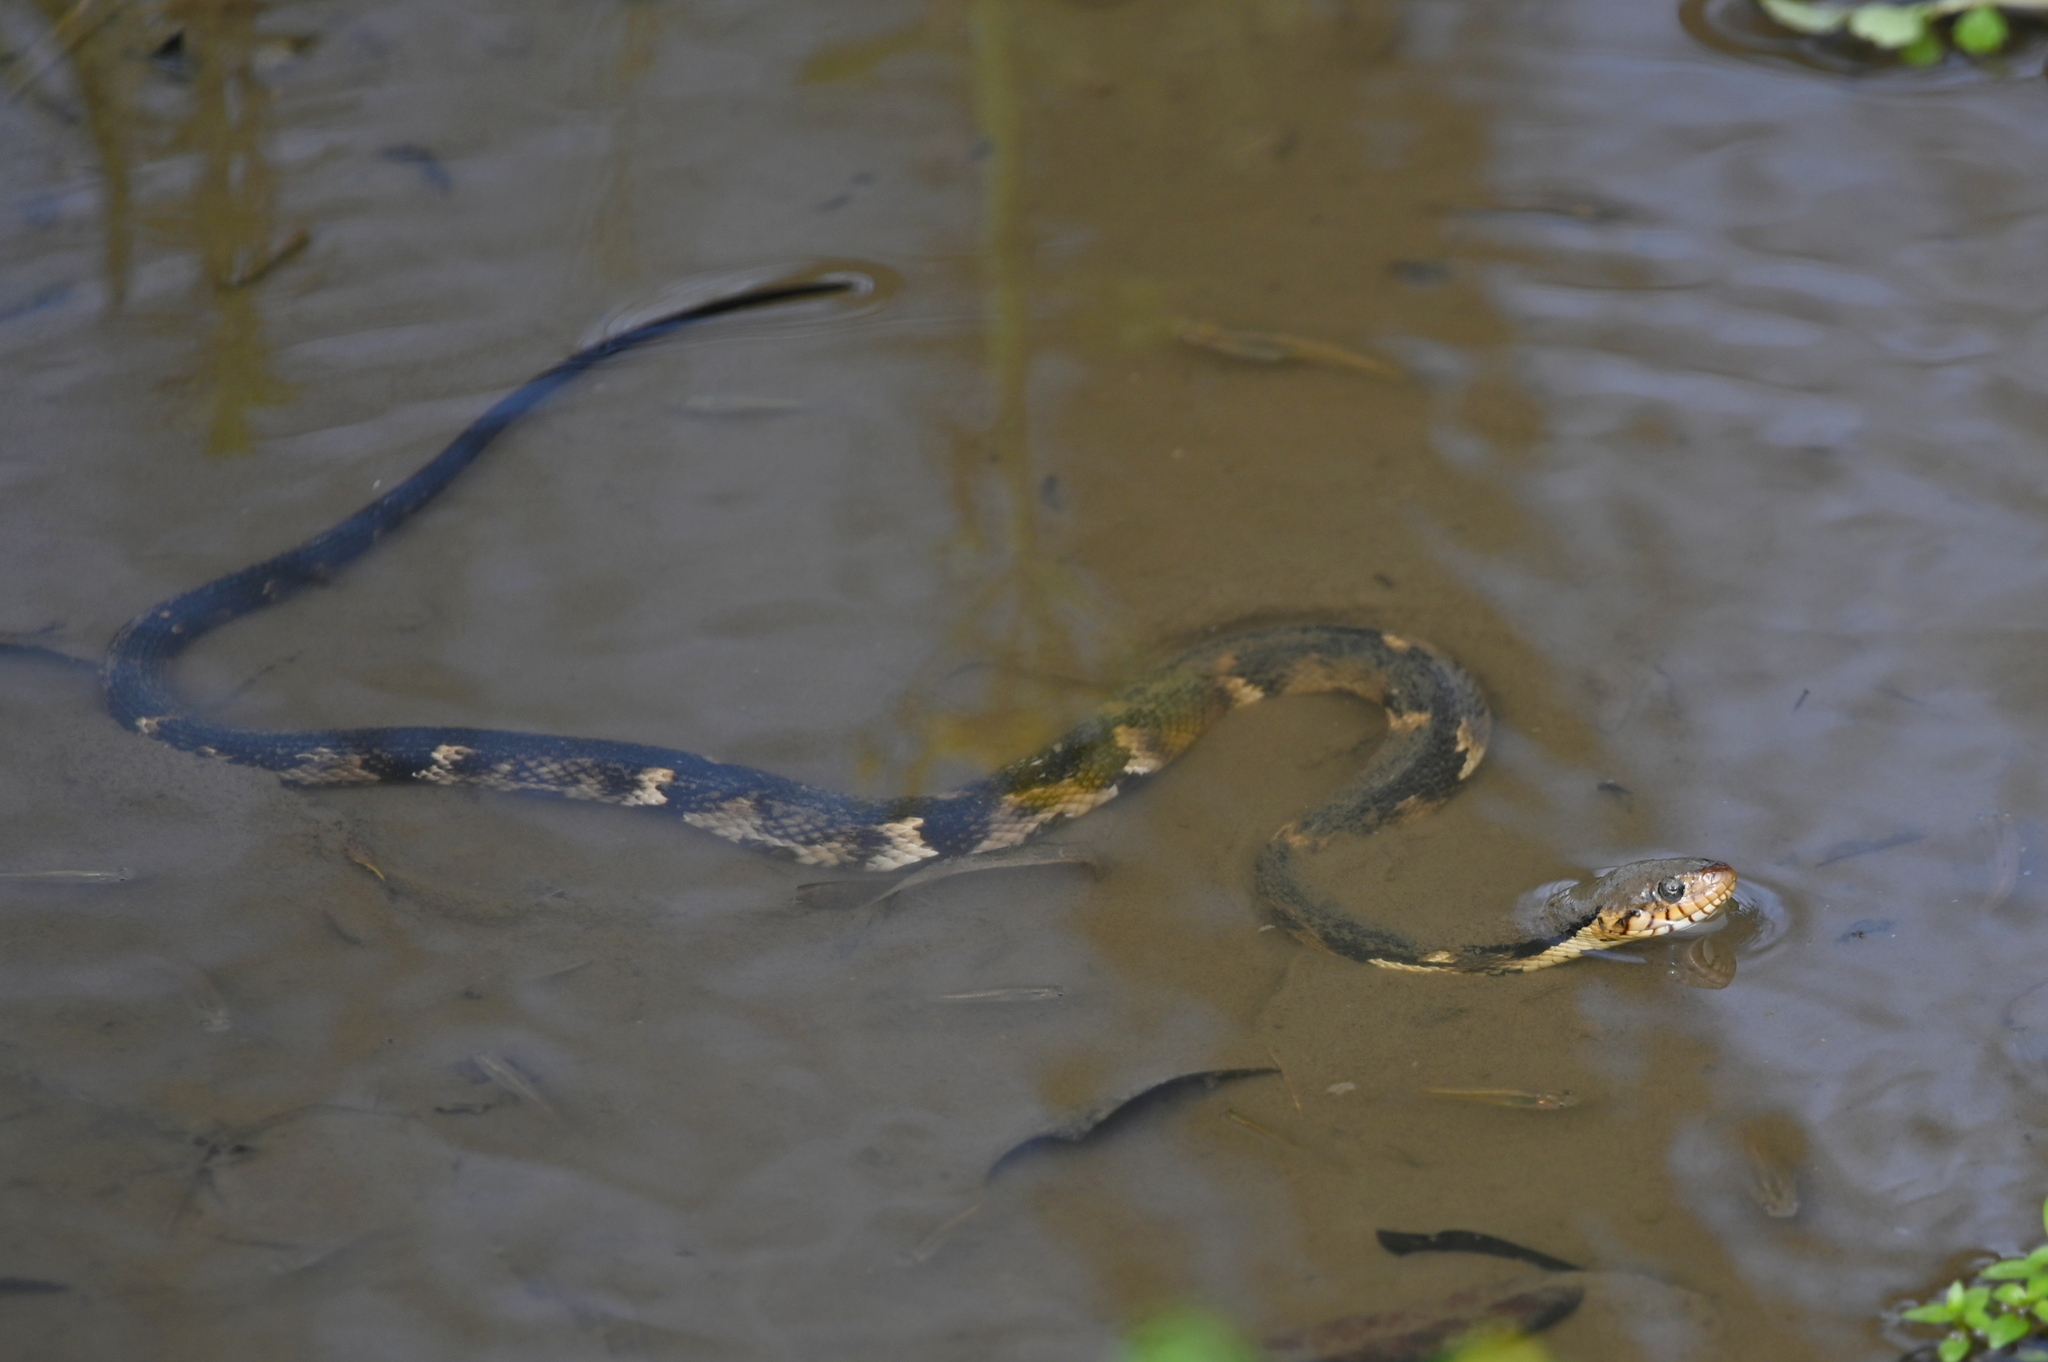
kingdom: Animalia
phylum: Chordata
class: Squamata
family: Colubridae
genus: Nerodia
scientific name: Nerodia fasciata
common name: Southern water snake
